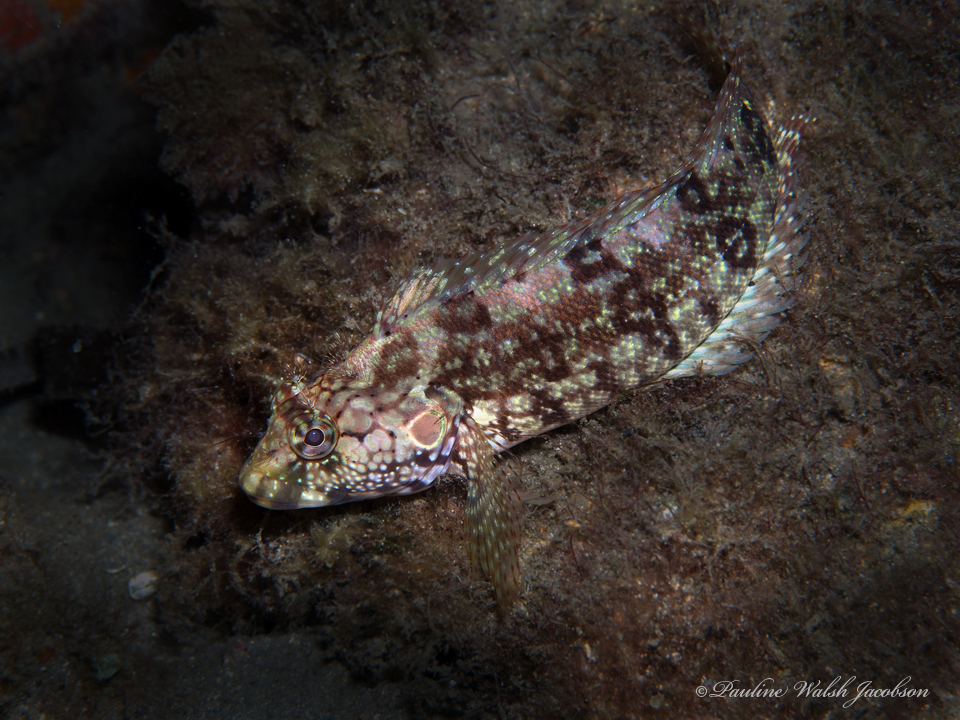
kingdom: Animalia
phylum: Chordata
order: Perciformes
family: Labrisomidae
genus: Labrisomus
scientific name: Labrisomus nuchipinnis
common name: Hairy blenny
